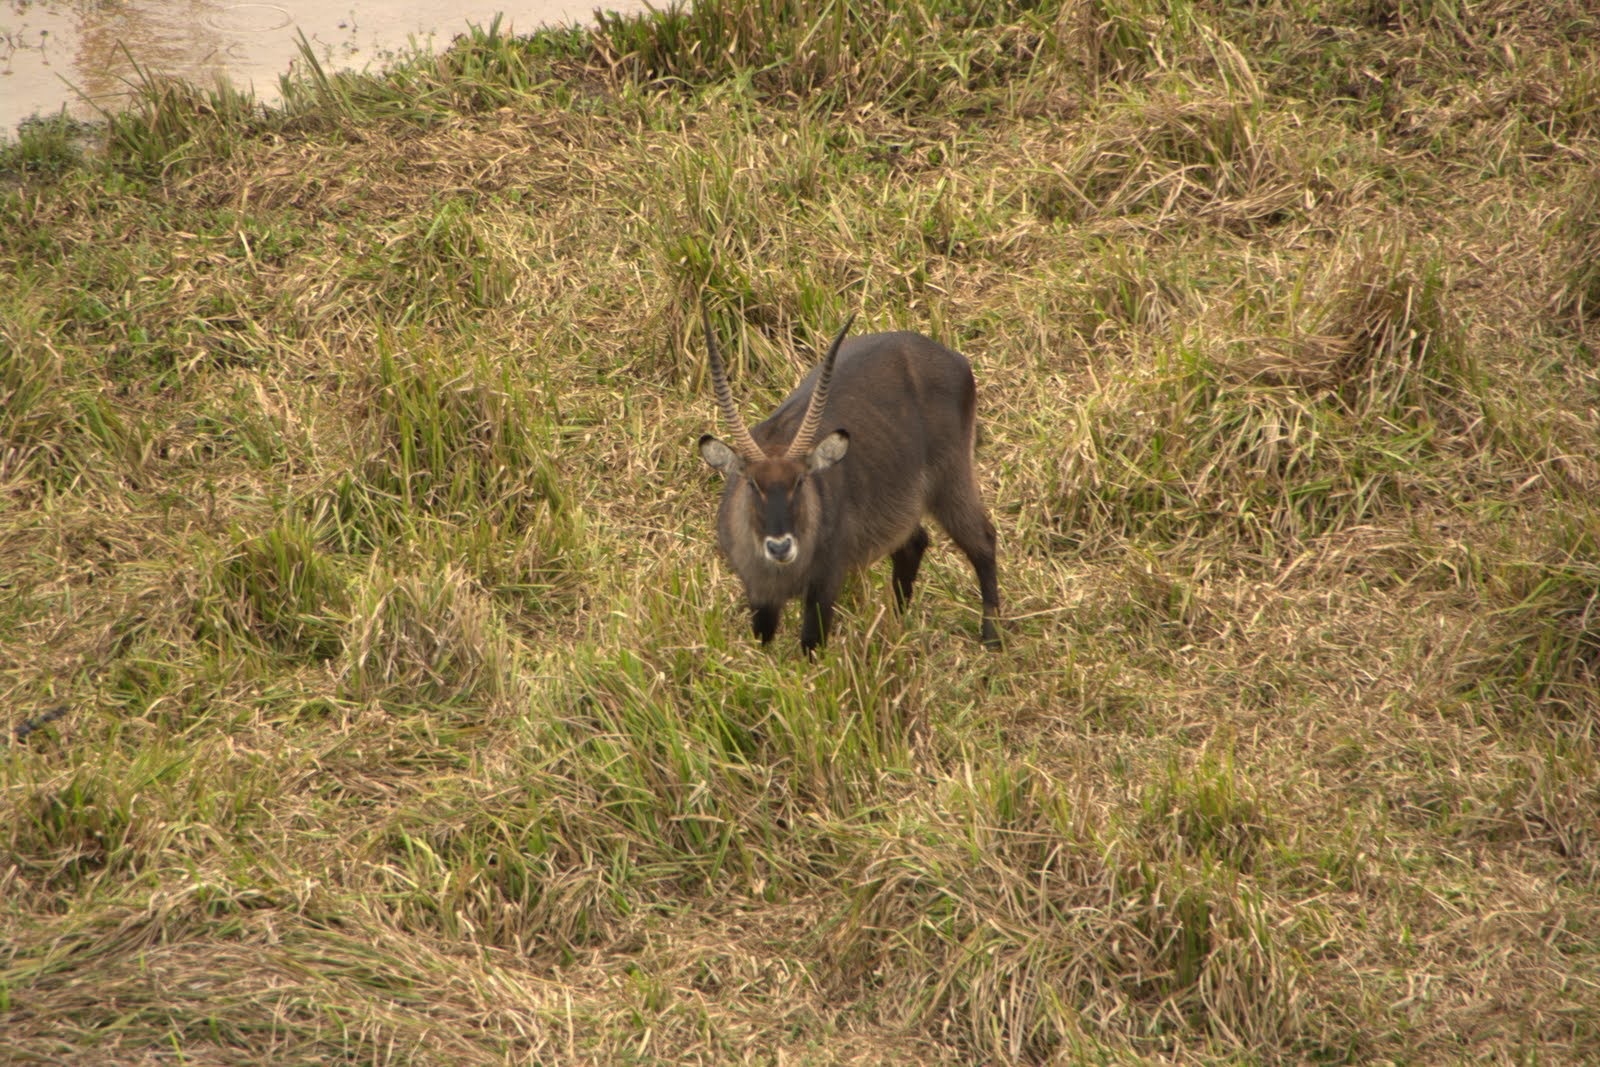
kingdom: Animalia
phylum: Chordata
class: Mammalia
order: Artiodactyla
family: Bovidae
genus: Kobus
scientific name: Kobus ellipsiprymnus
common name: Waterbuck
